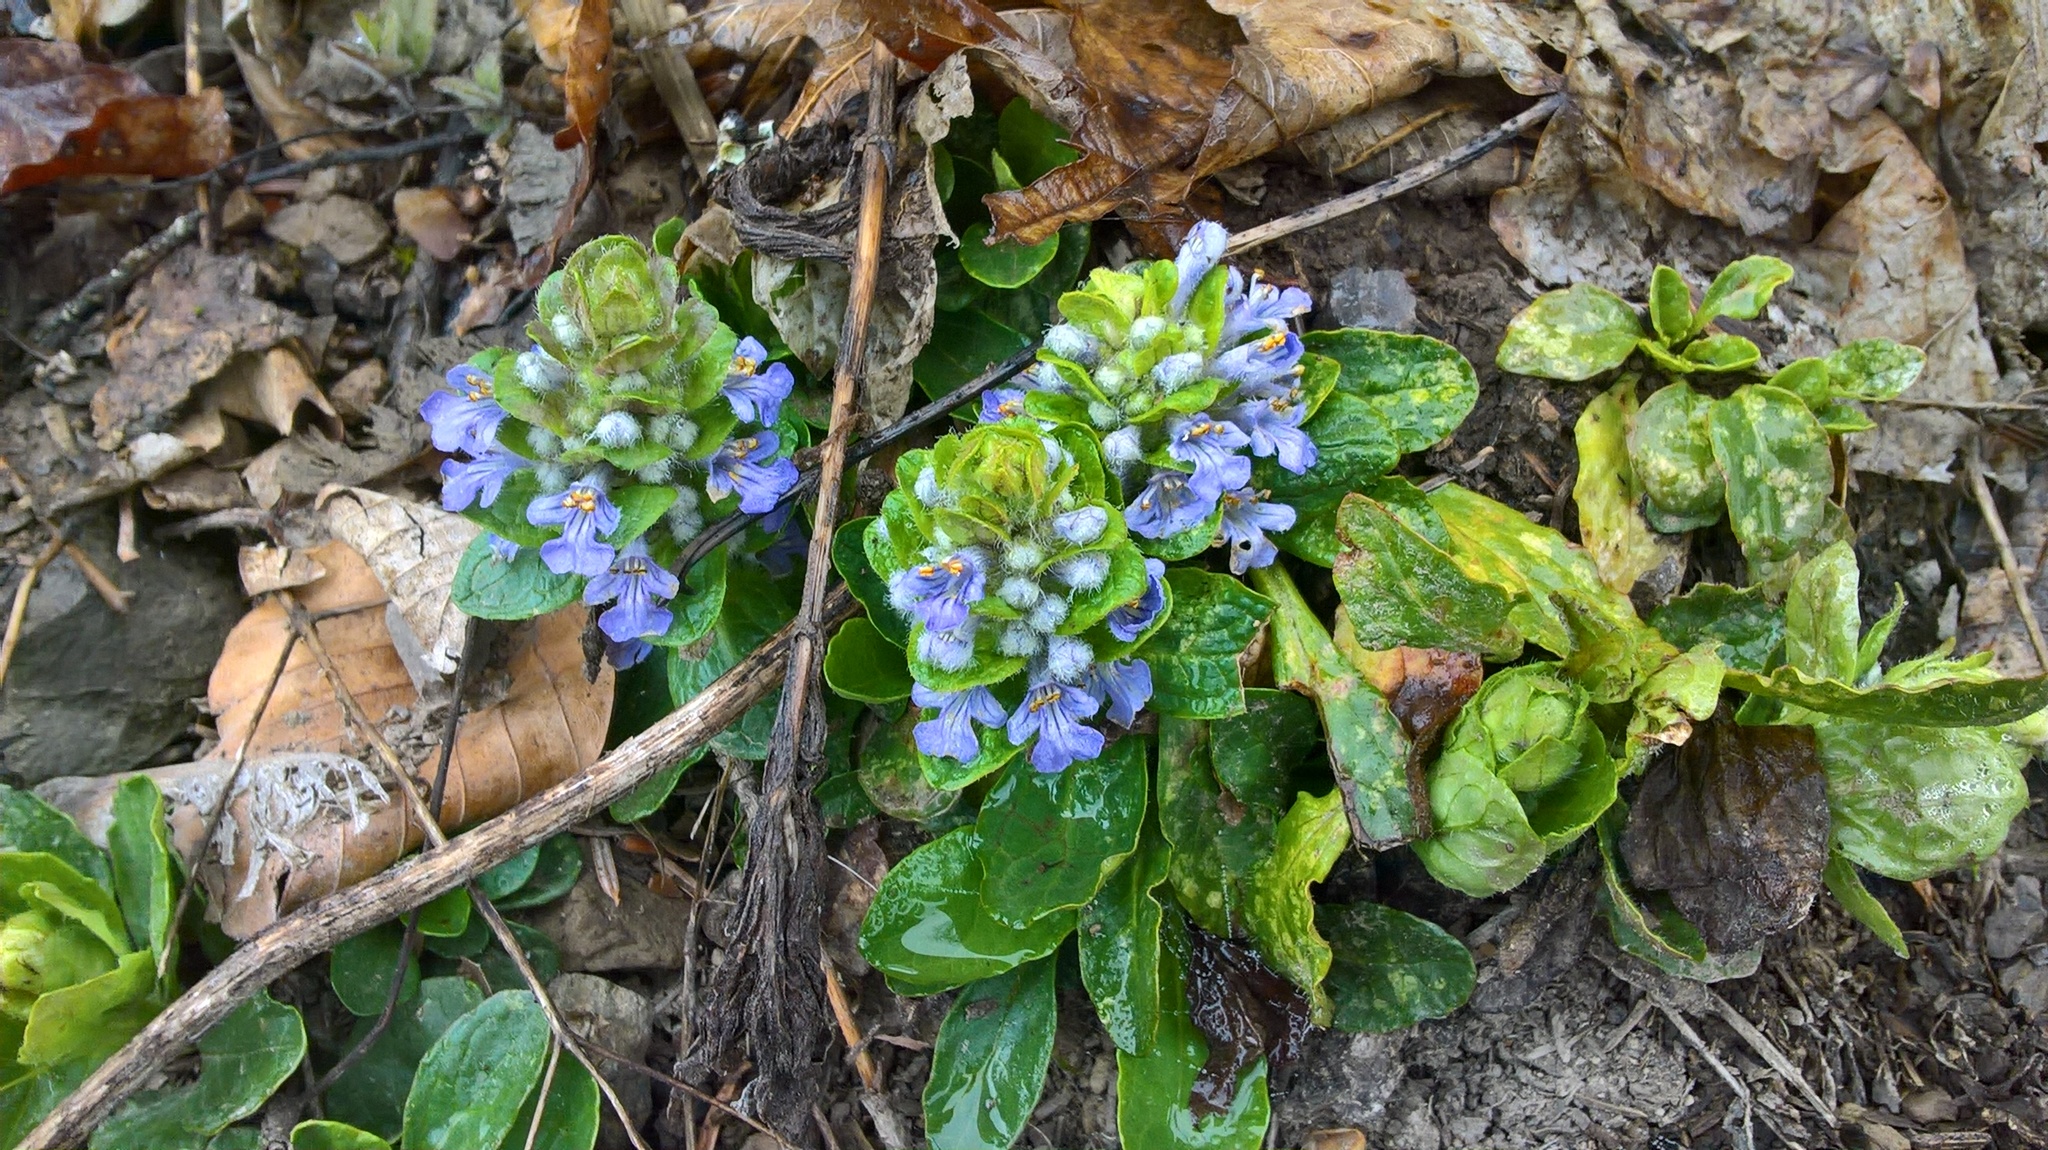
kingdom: Plantae
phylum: Tracheophyta
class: Magnoliopsida
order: Lamiales
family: Lamiaceae
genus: Ajuga
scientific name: Ajuga reptans
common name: Bugle
